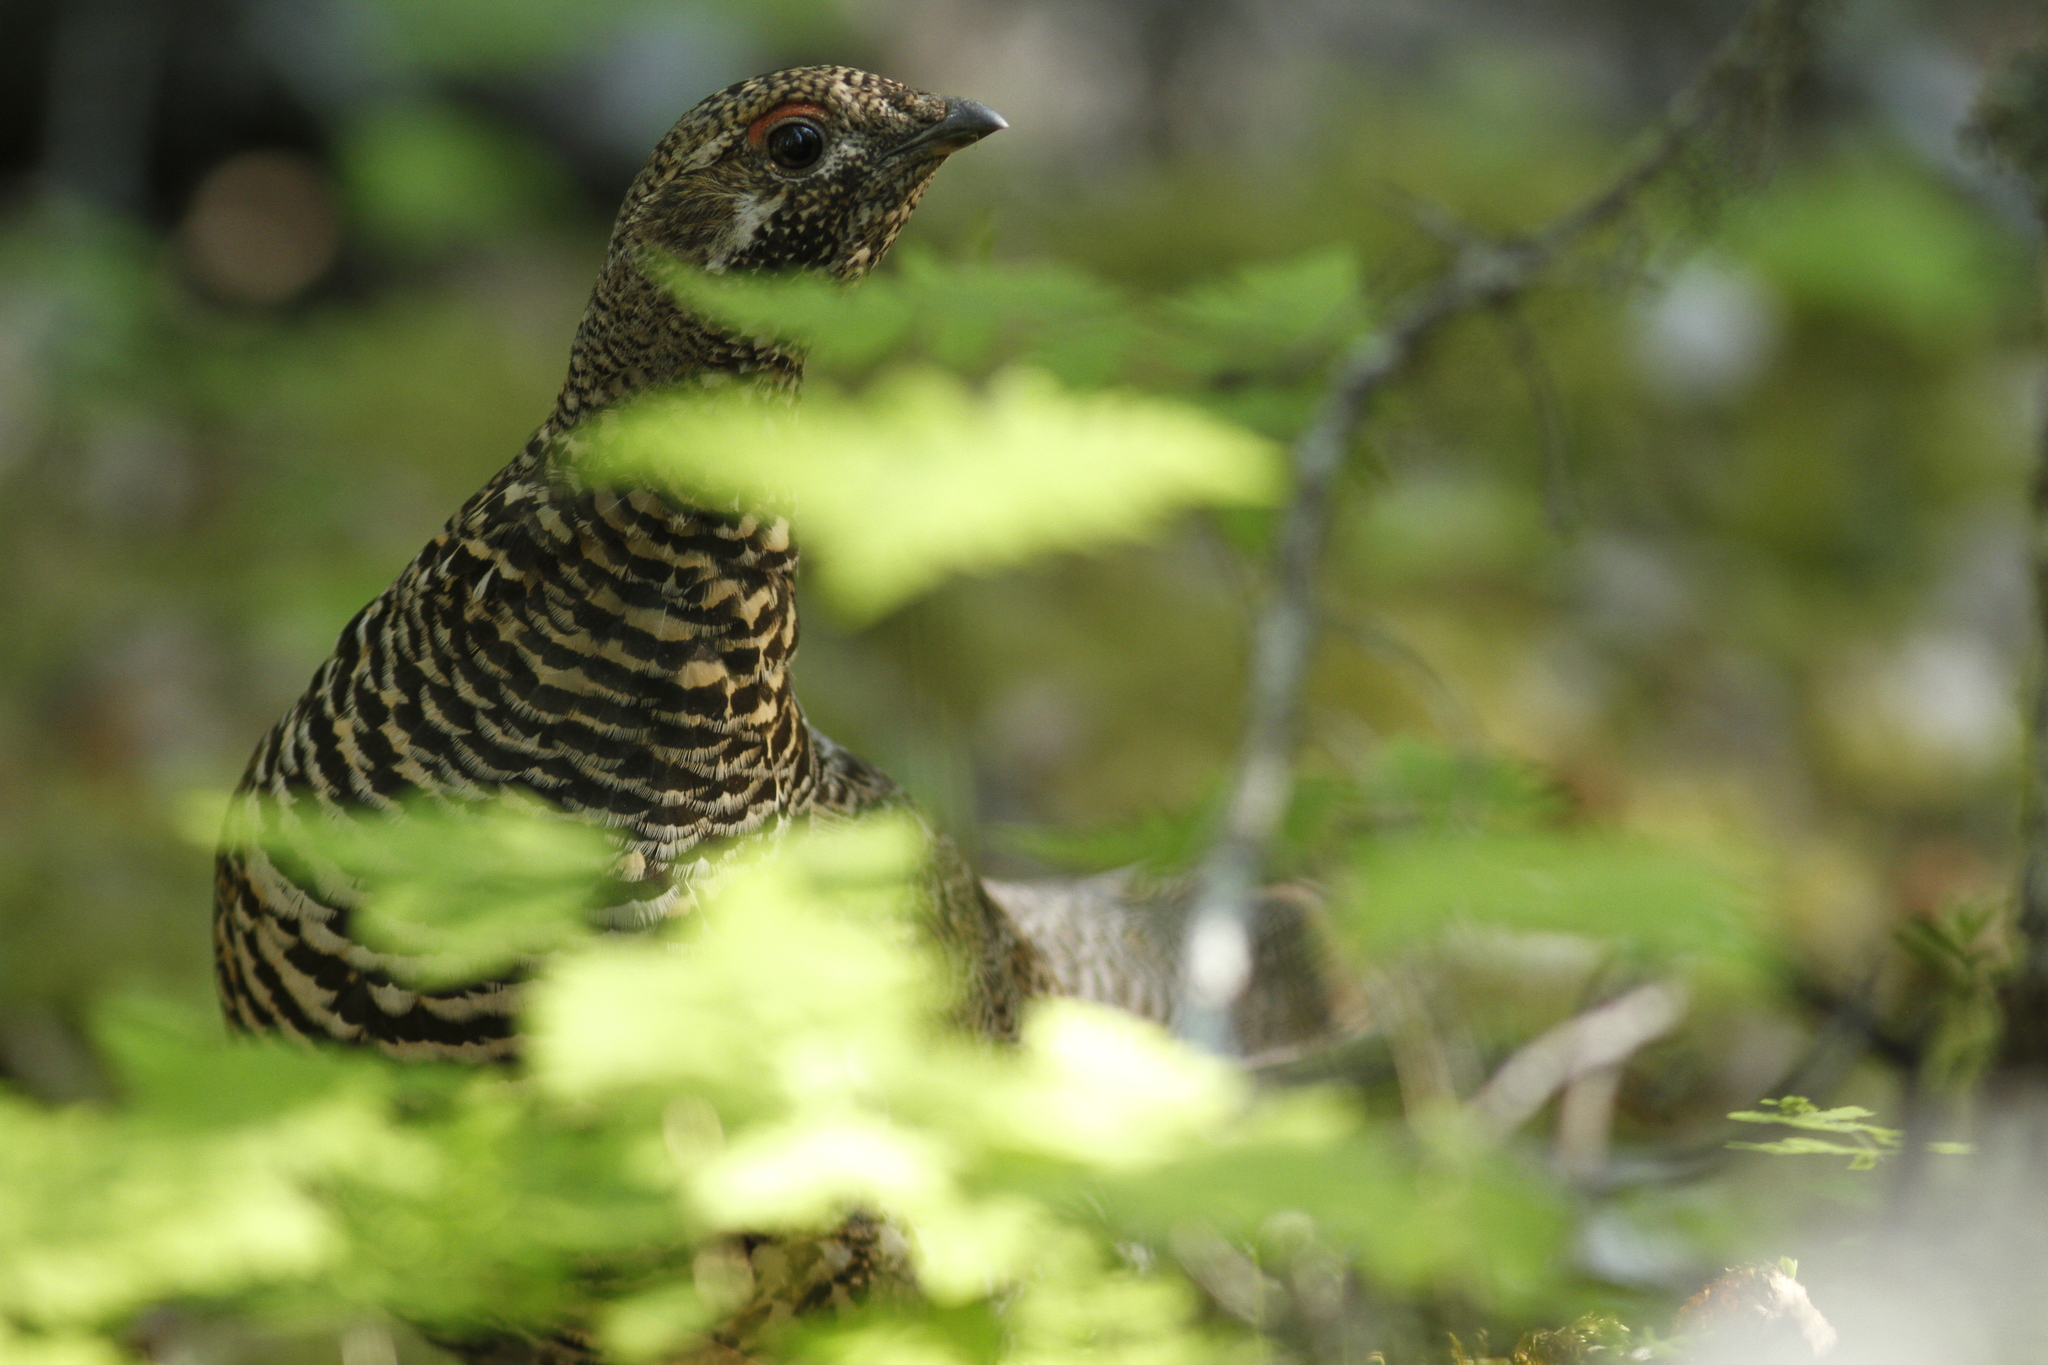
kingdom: Animalia
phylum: Chordata
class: Aves
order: Galliformes
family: Phasianidae
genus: Canachites
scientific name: Canachites canadensis
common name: Spruce grouse
